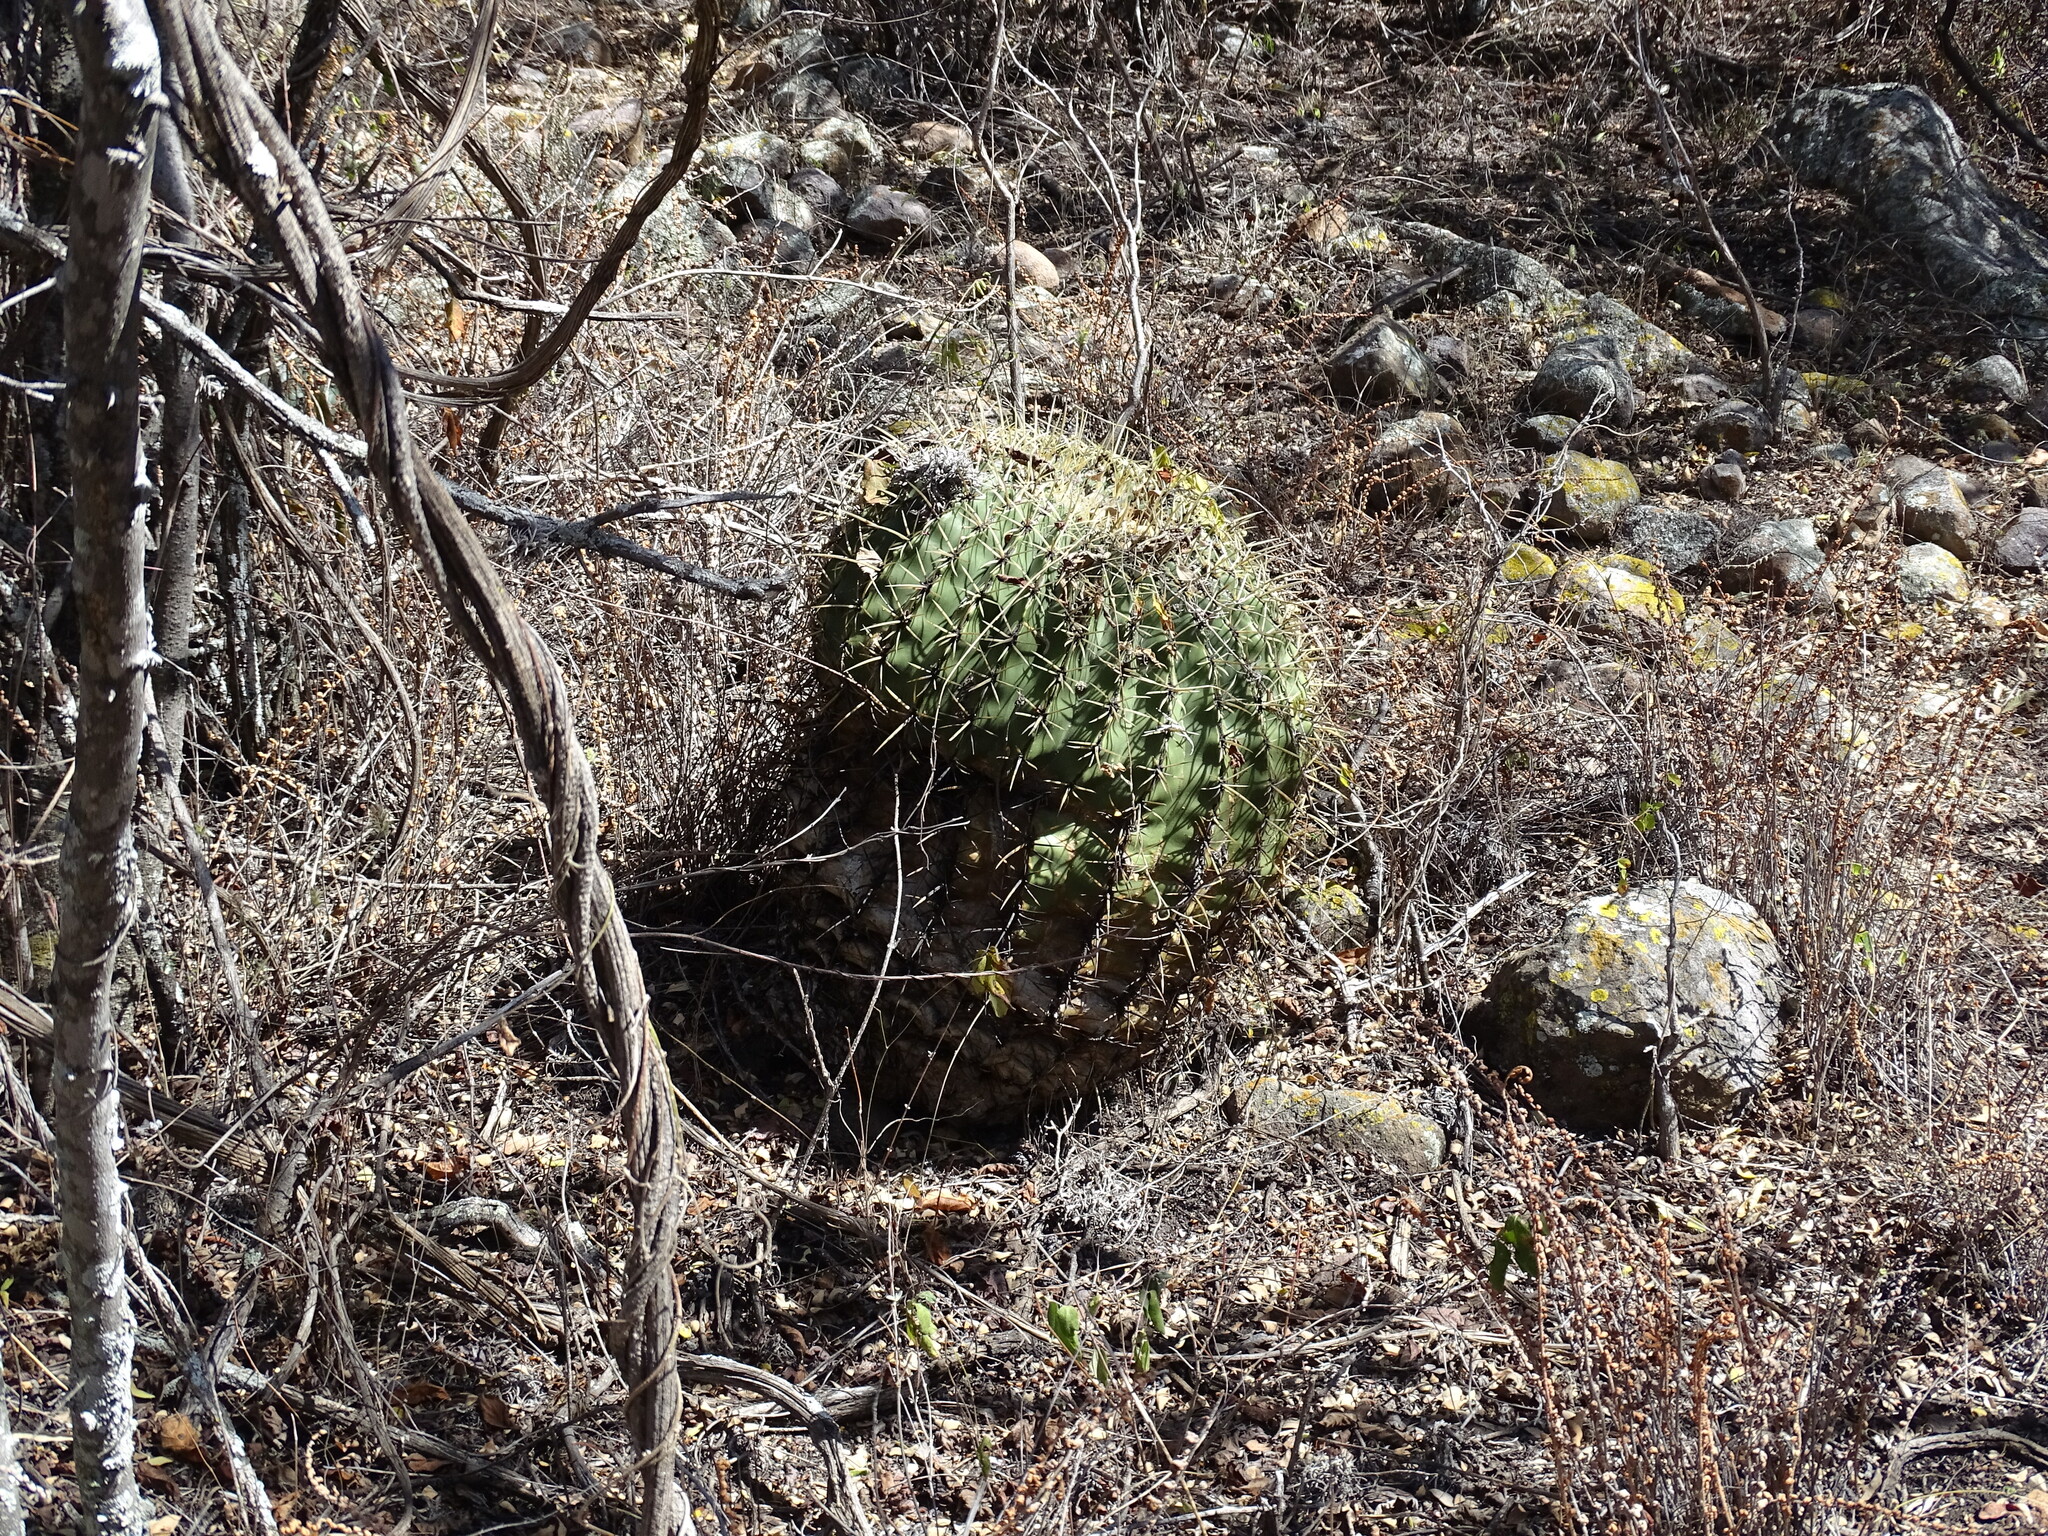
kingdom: Plantae
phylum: Tracheophyta
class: Magnoliopsida
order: Caryophyllales
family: Cactaceae
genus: Bisnaga
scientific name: Bisnaga histrix
